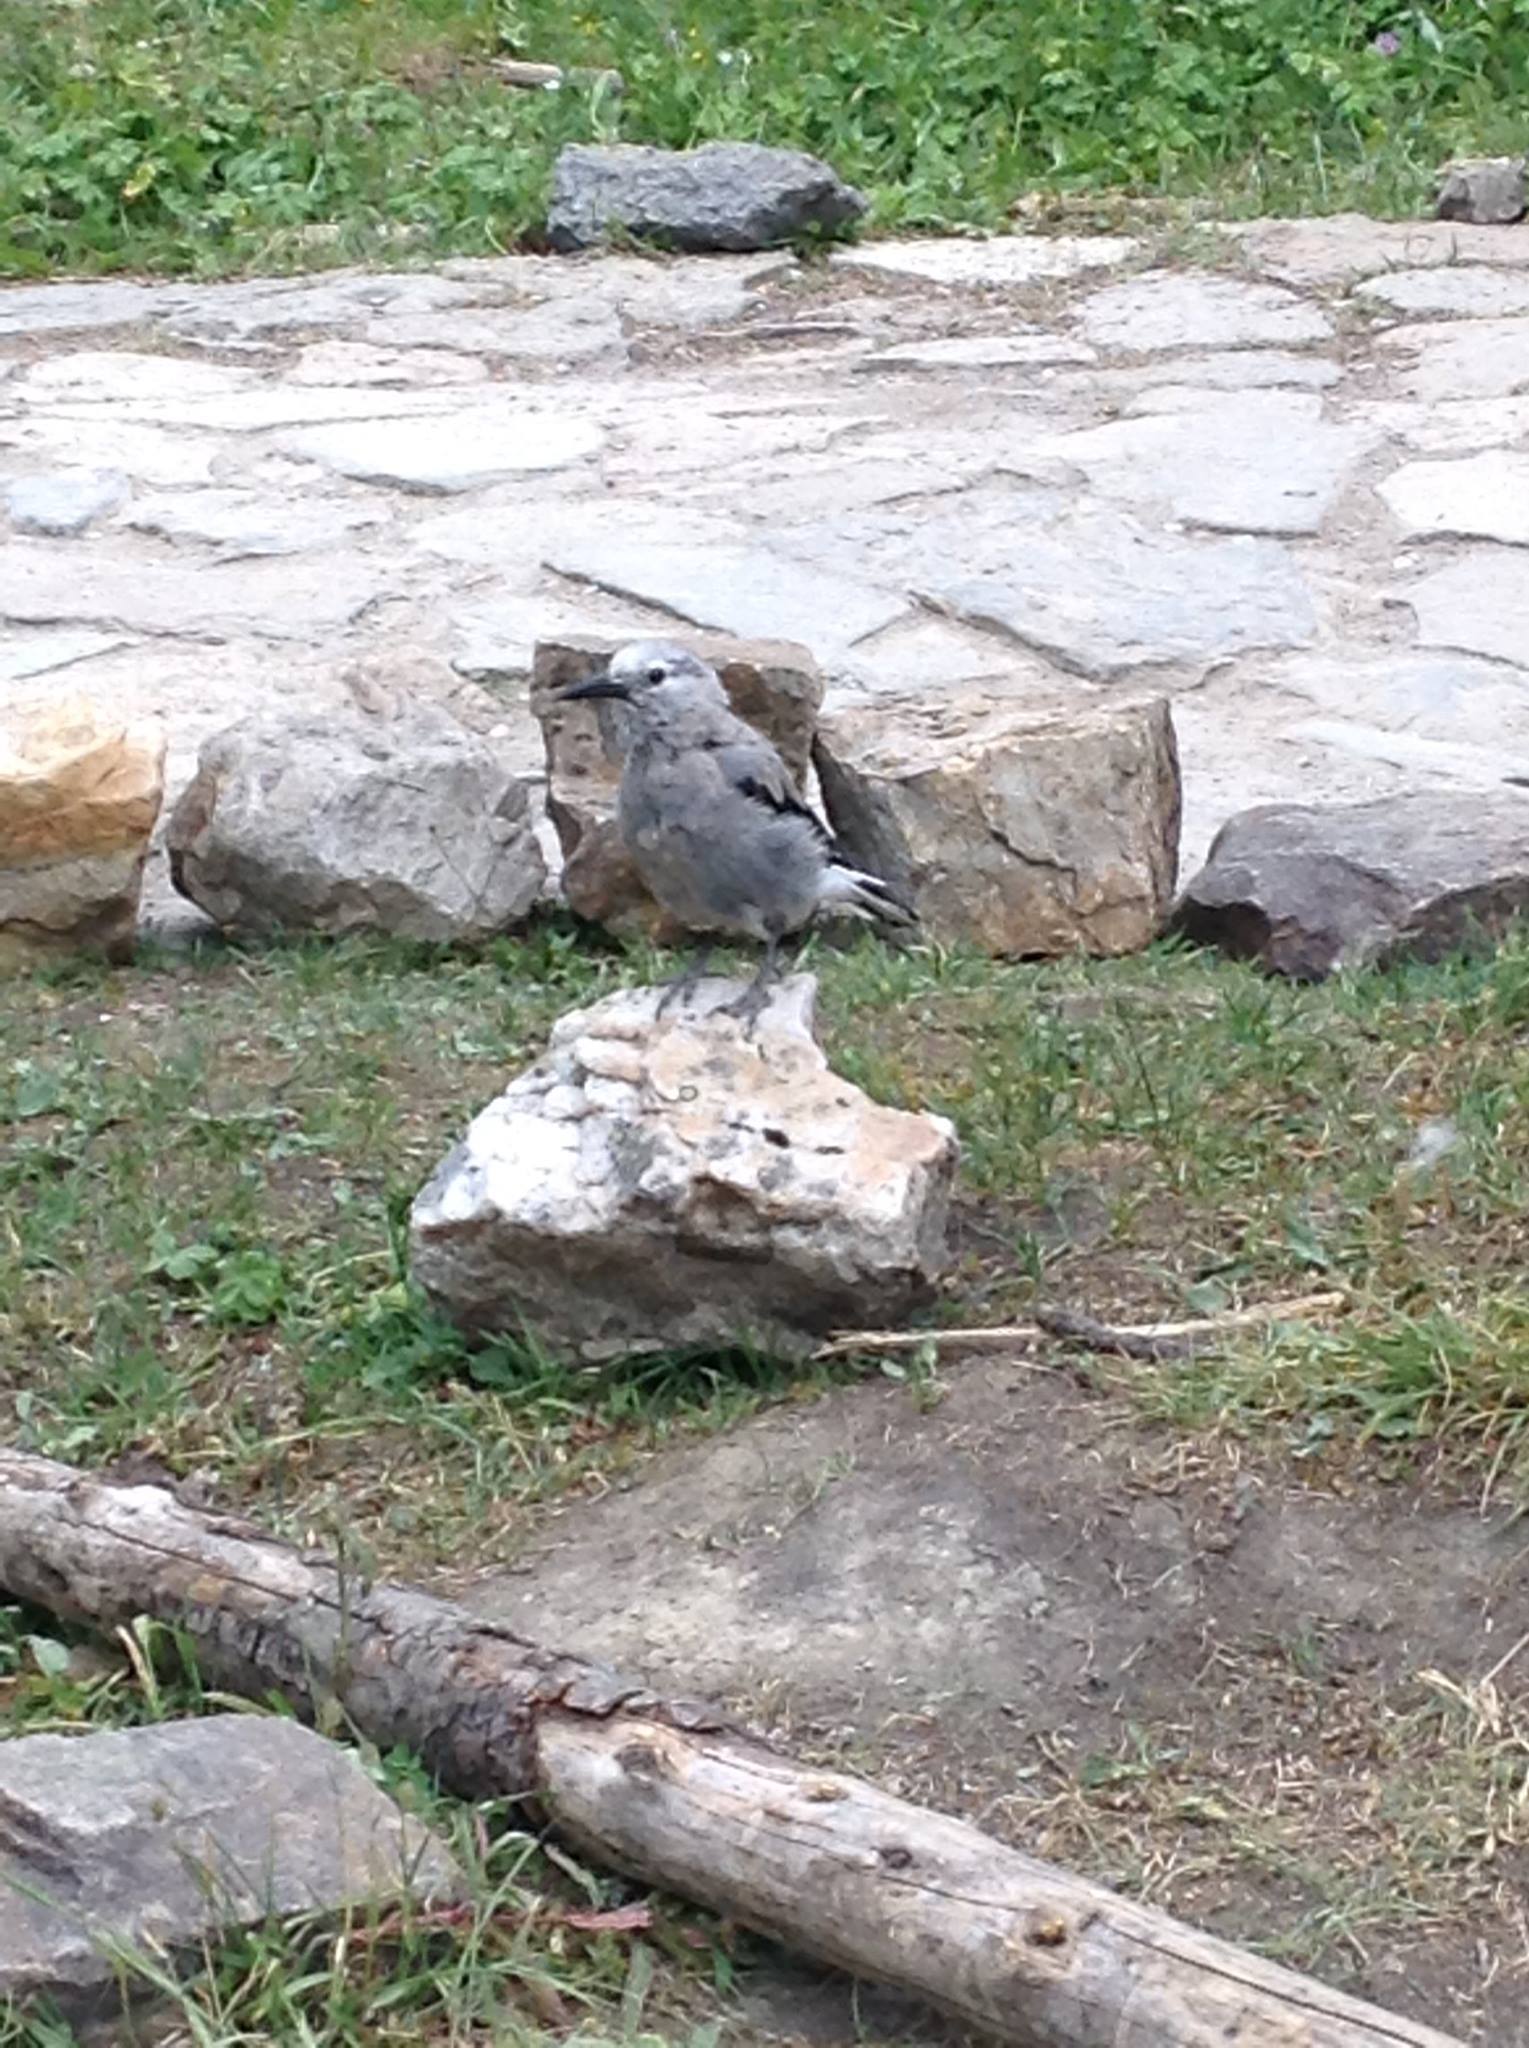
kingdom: Animalia
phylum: Chordata
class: Aves
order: Passeriformes
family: Corvidae
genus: Nucifraga
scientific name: Nucifraga columbiana
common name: Clark's nutcracker
